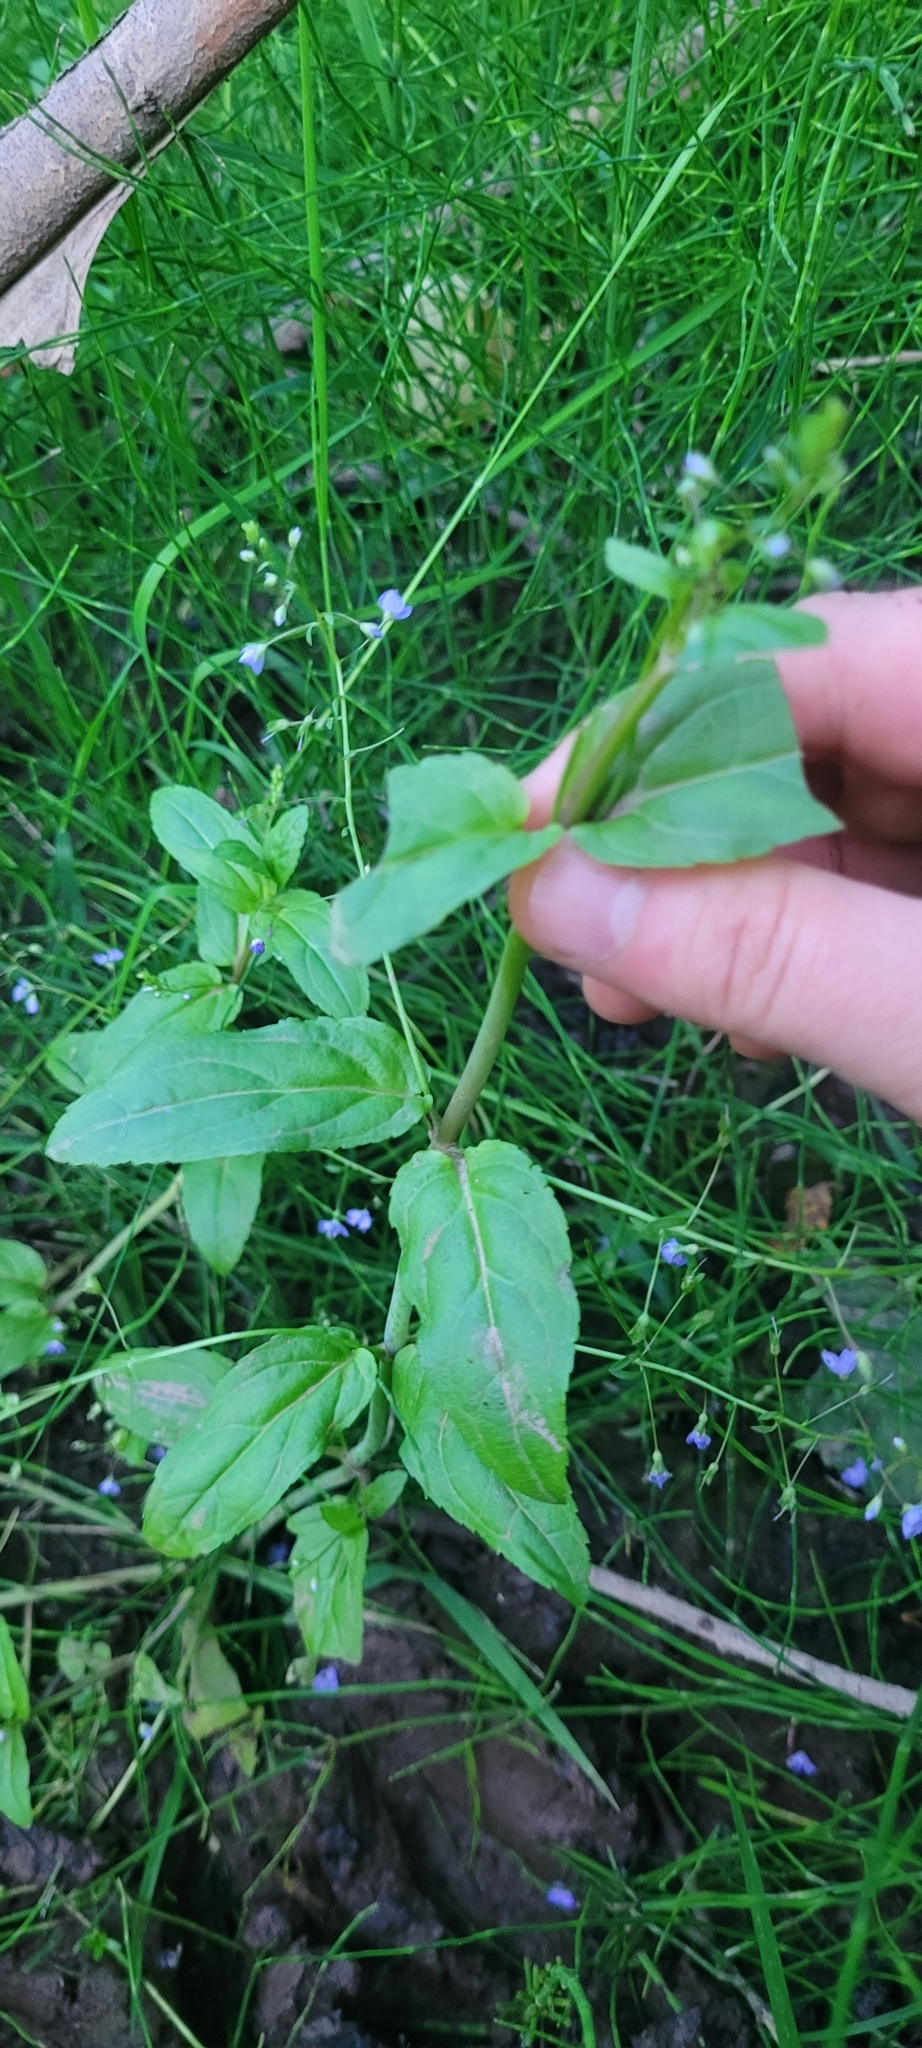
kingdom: Plantae
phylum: Tracheophyta
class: Magnoliopsida
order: Lamiales
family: Plantaginaceae
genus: Veronica
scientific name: Veronica americana
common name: American brooklime
